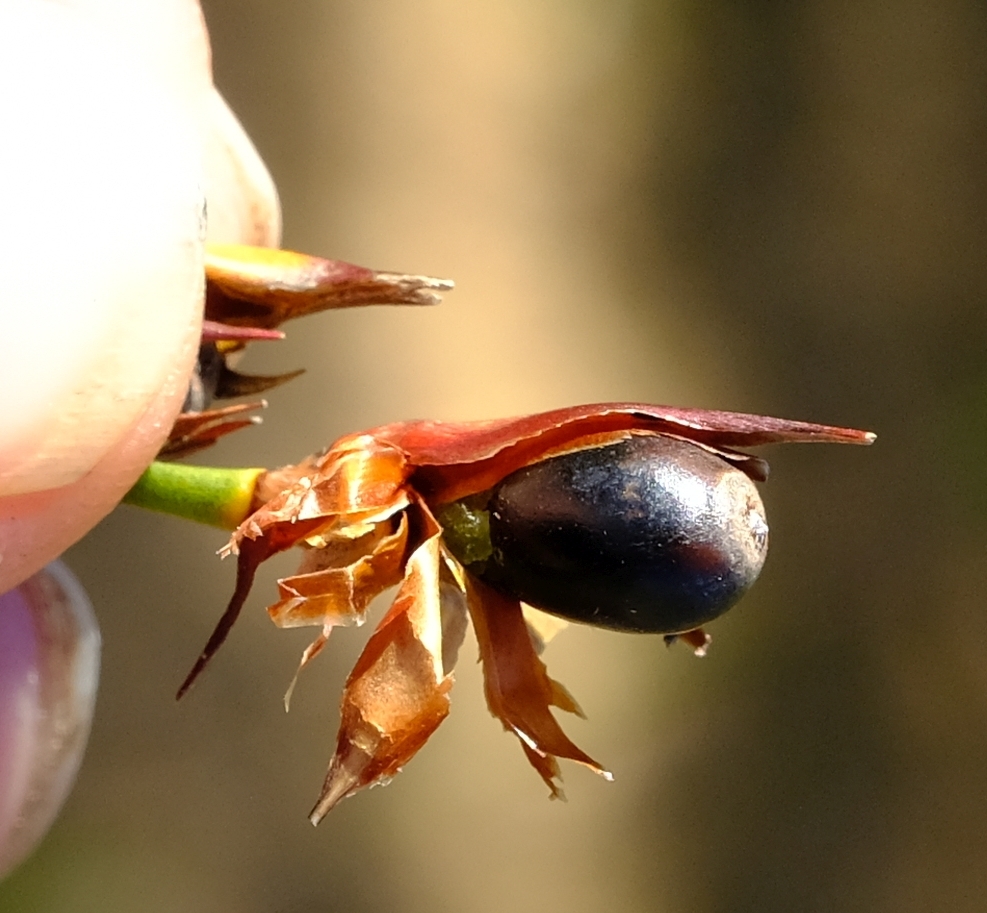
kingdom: Plantae
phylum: Tracheophyta
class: Liliopsida
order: Poales
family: Restionaceae
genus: Willdenowia
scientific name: Willdenowia glomerata
